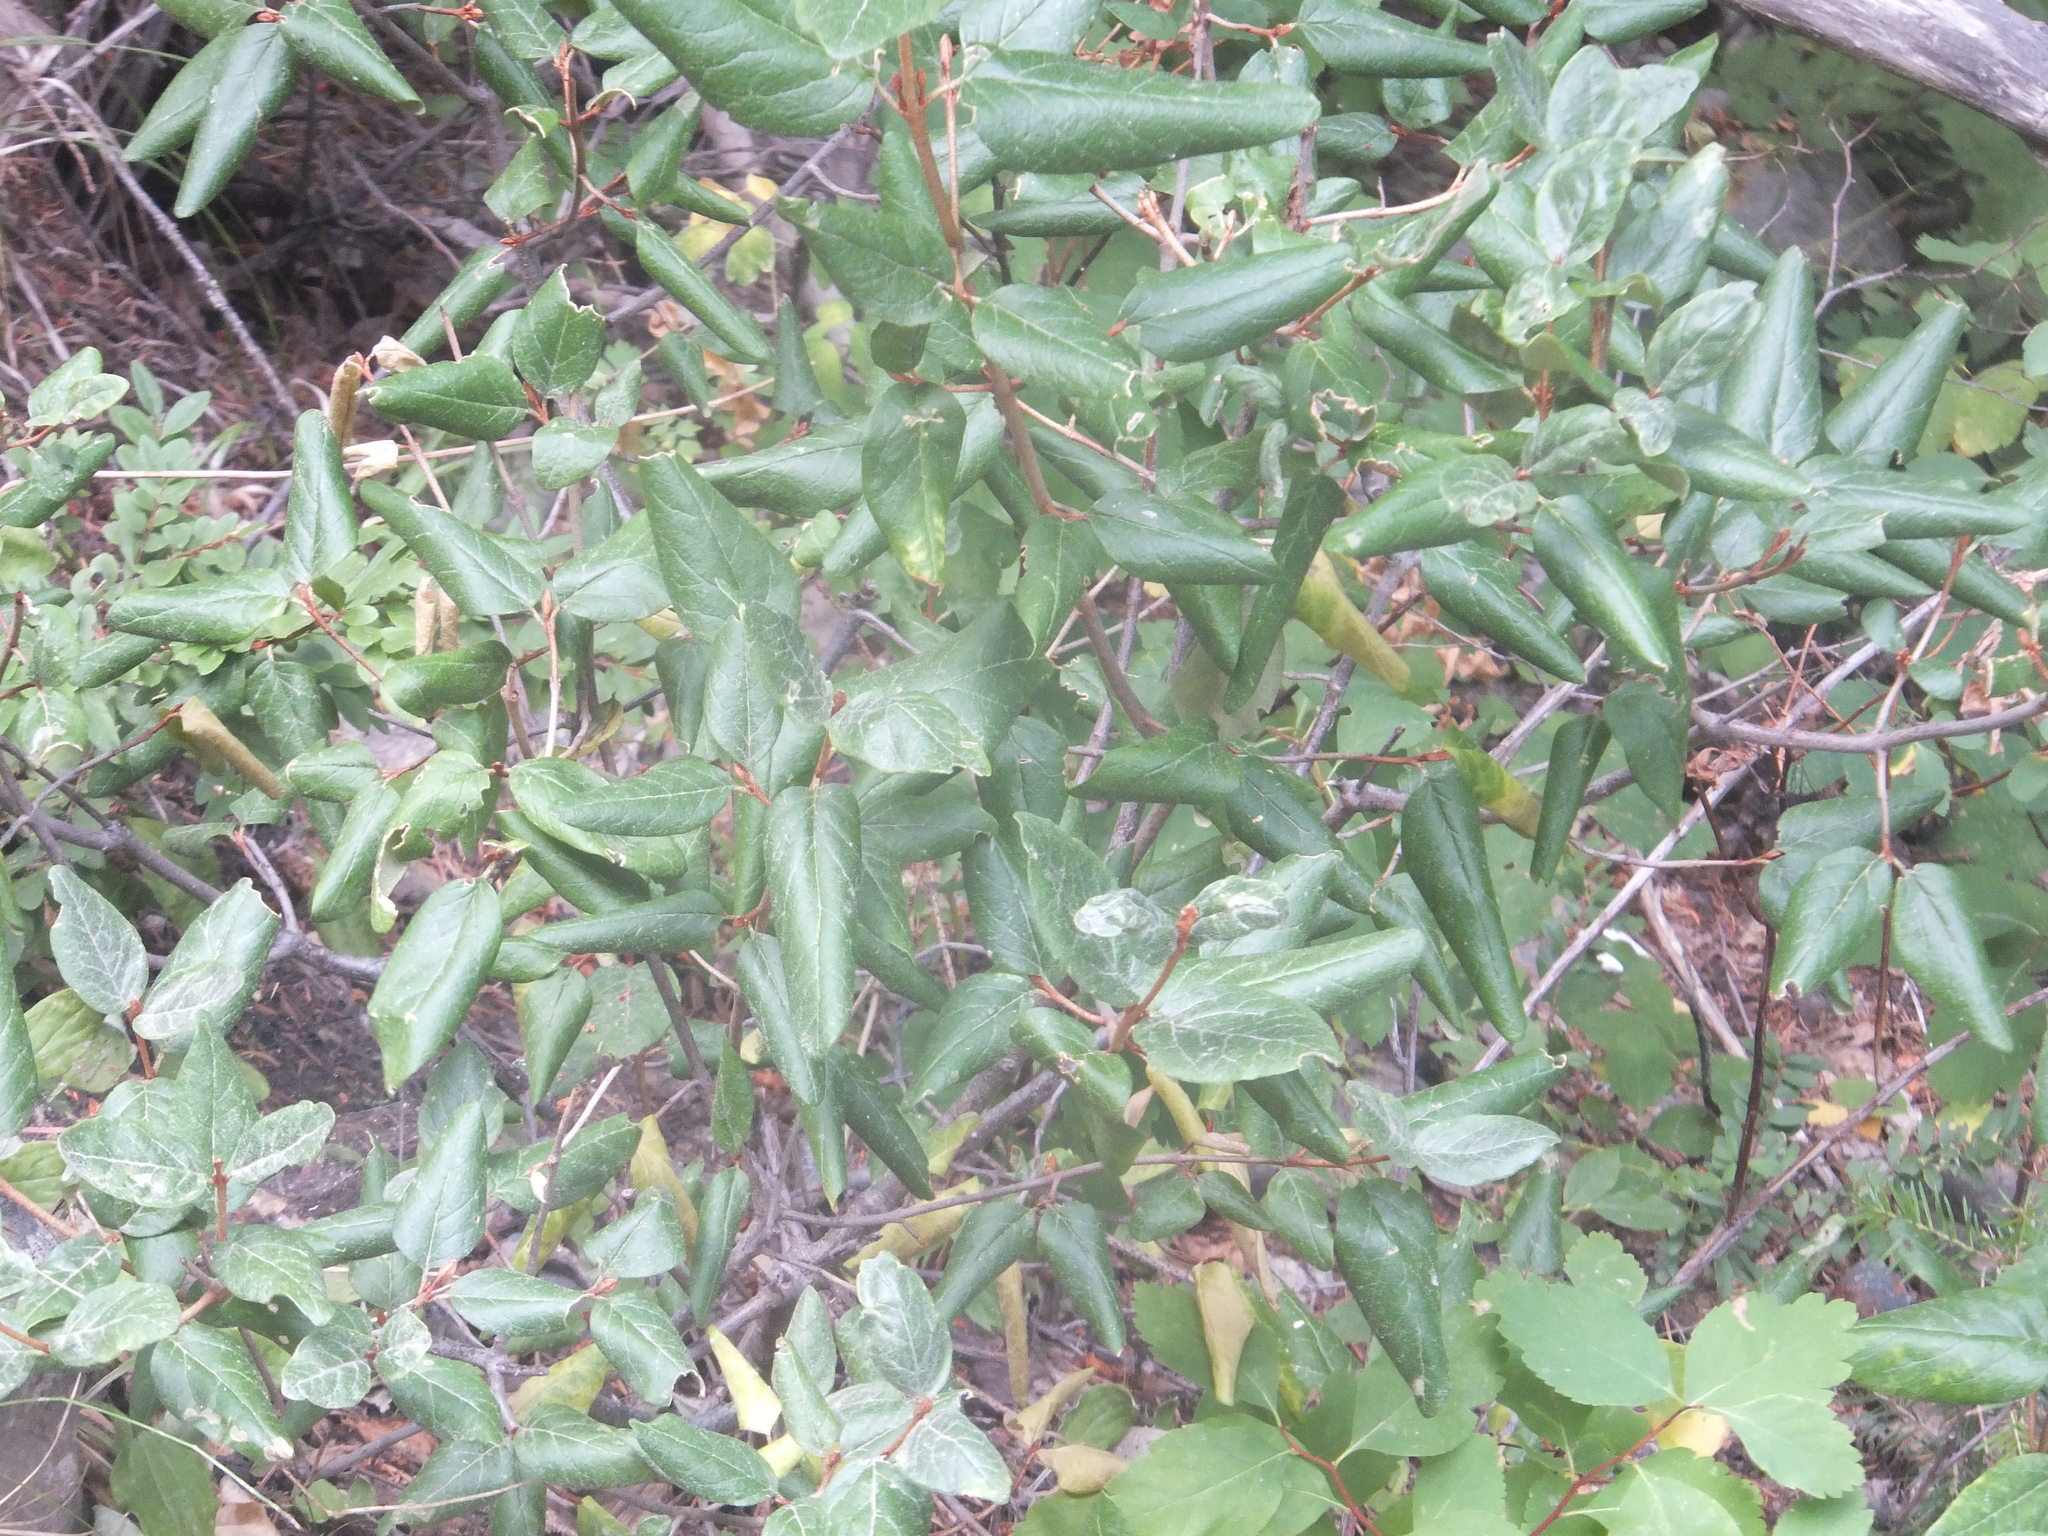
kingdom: Plantae
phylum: Tracheophyta
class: Magnoliopsida
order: Rosales
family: Elaeagnaceae
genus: Shepherdia
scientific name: Shepherdia canadensis
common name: Soapberry
